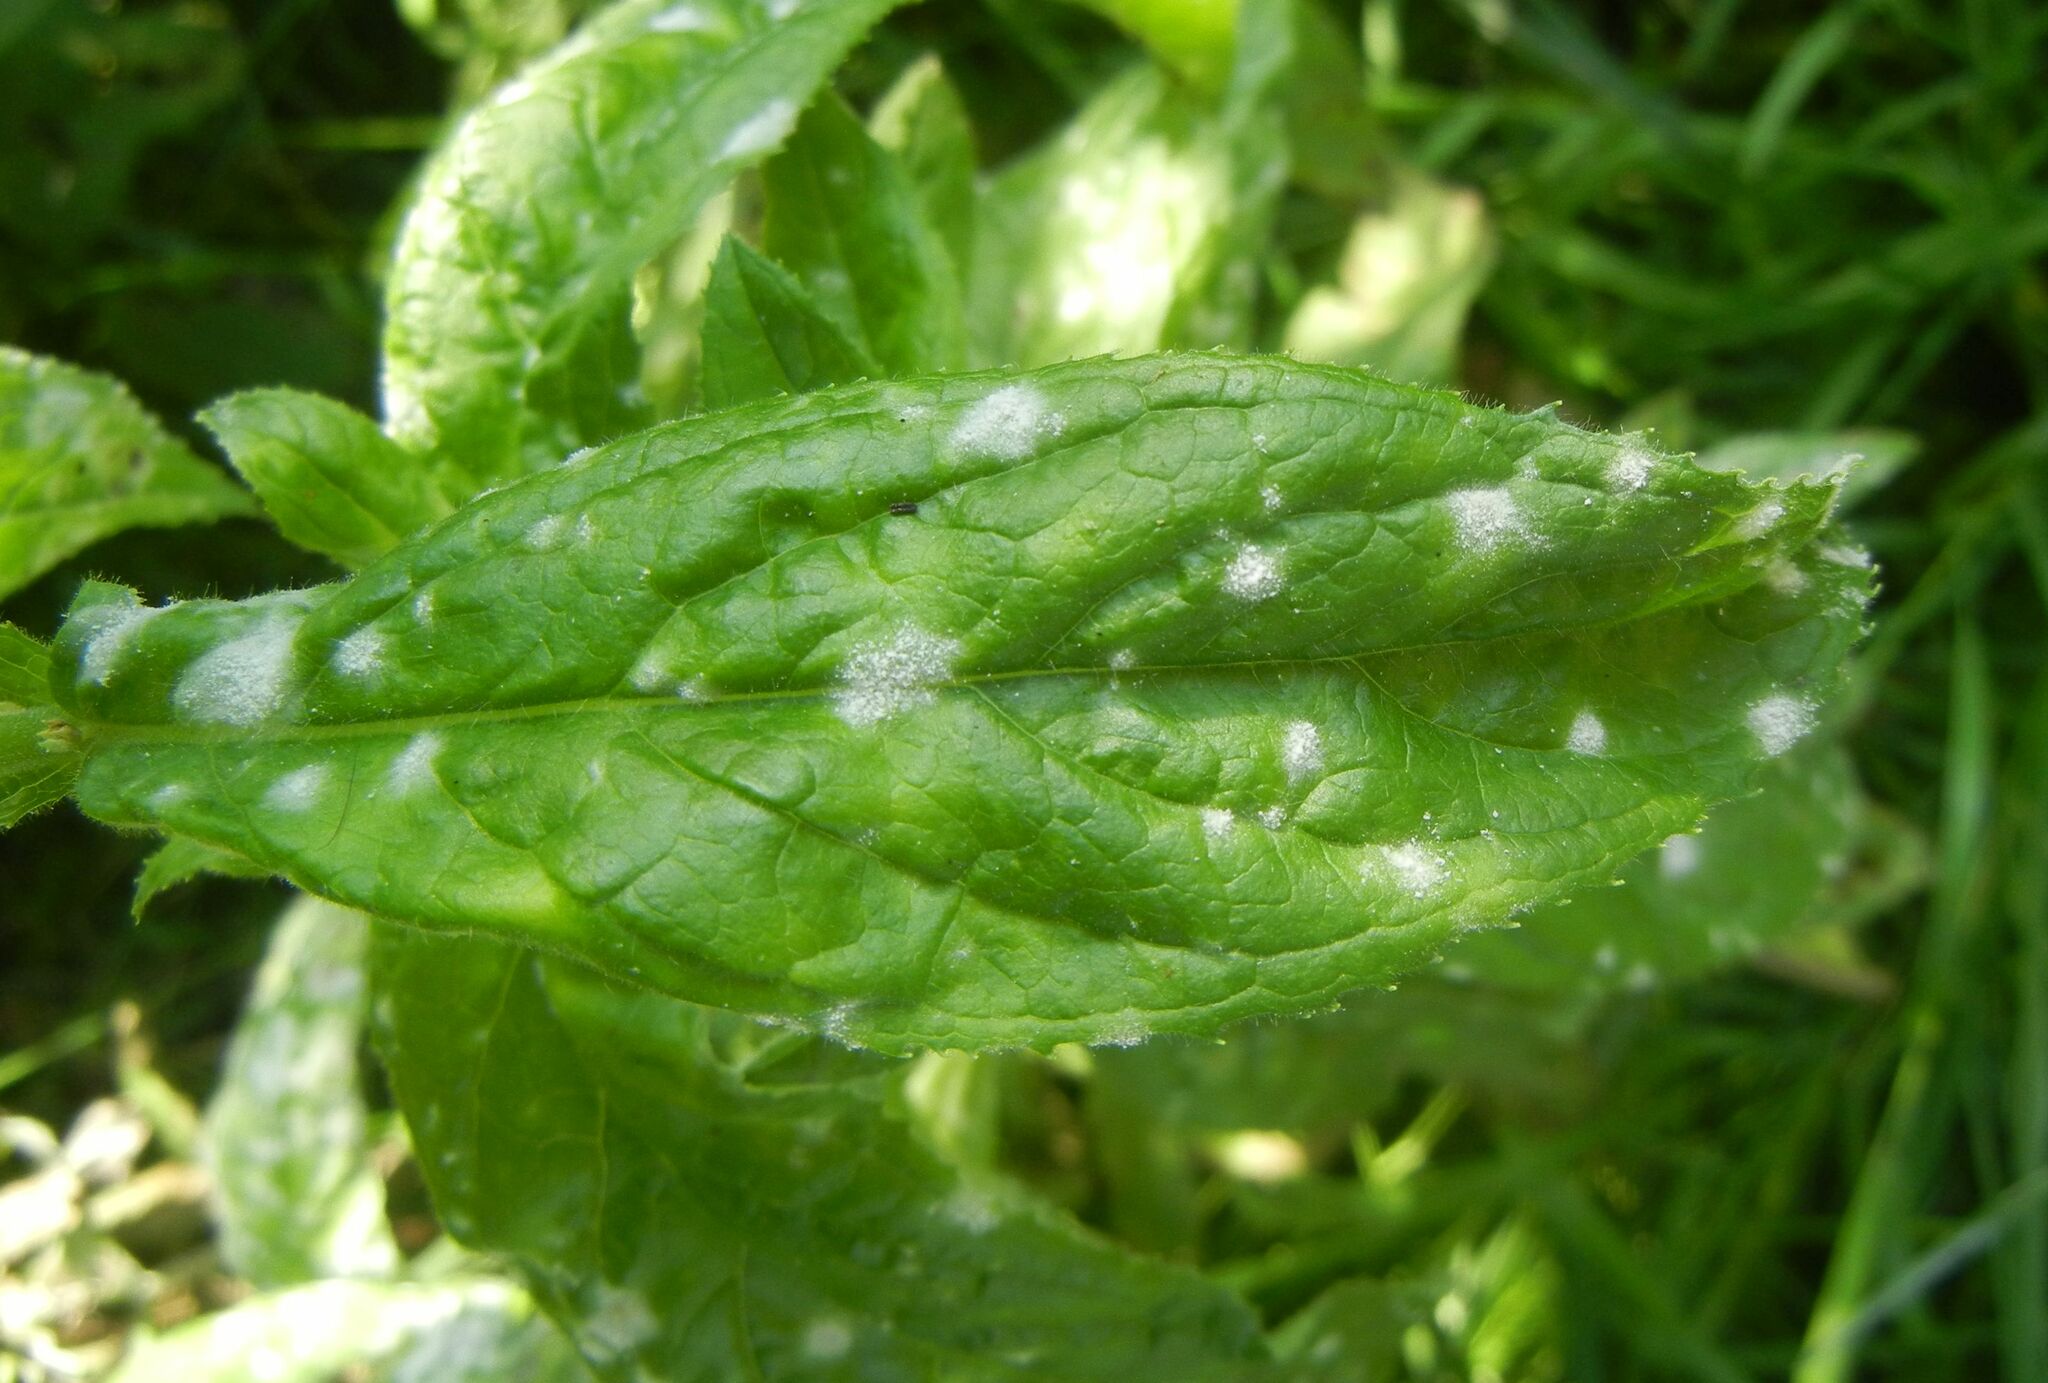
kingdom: Fungi
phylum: Ascomycota
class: Leotiomycetes
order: Helotiales
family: Erysiphaceae
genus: Podosphaera
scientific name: Podosphaera epilobii
